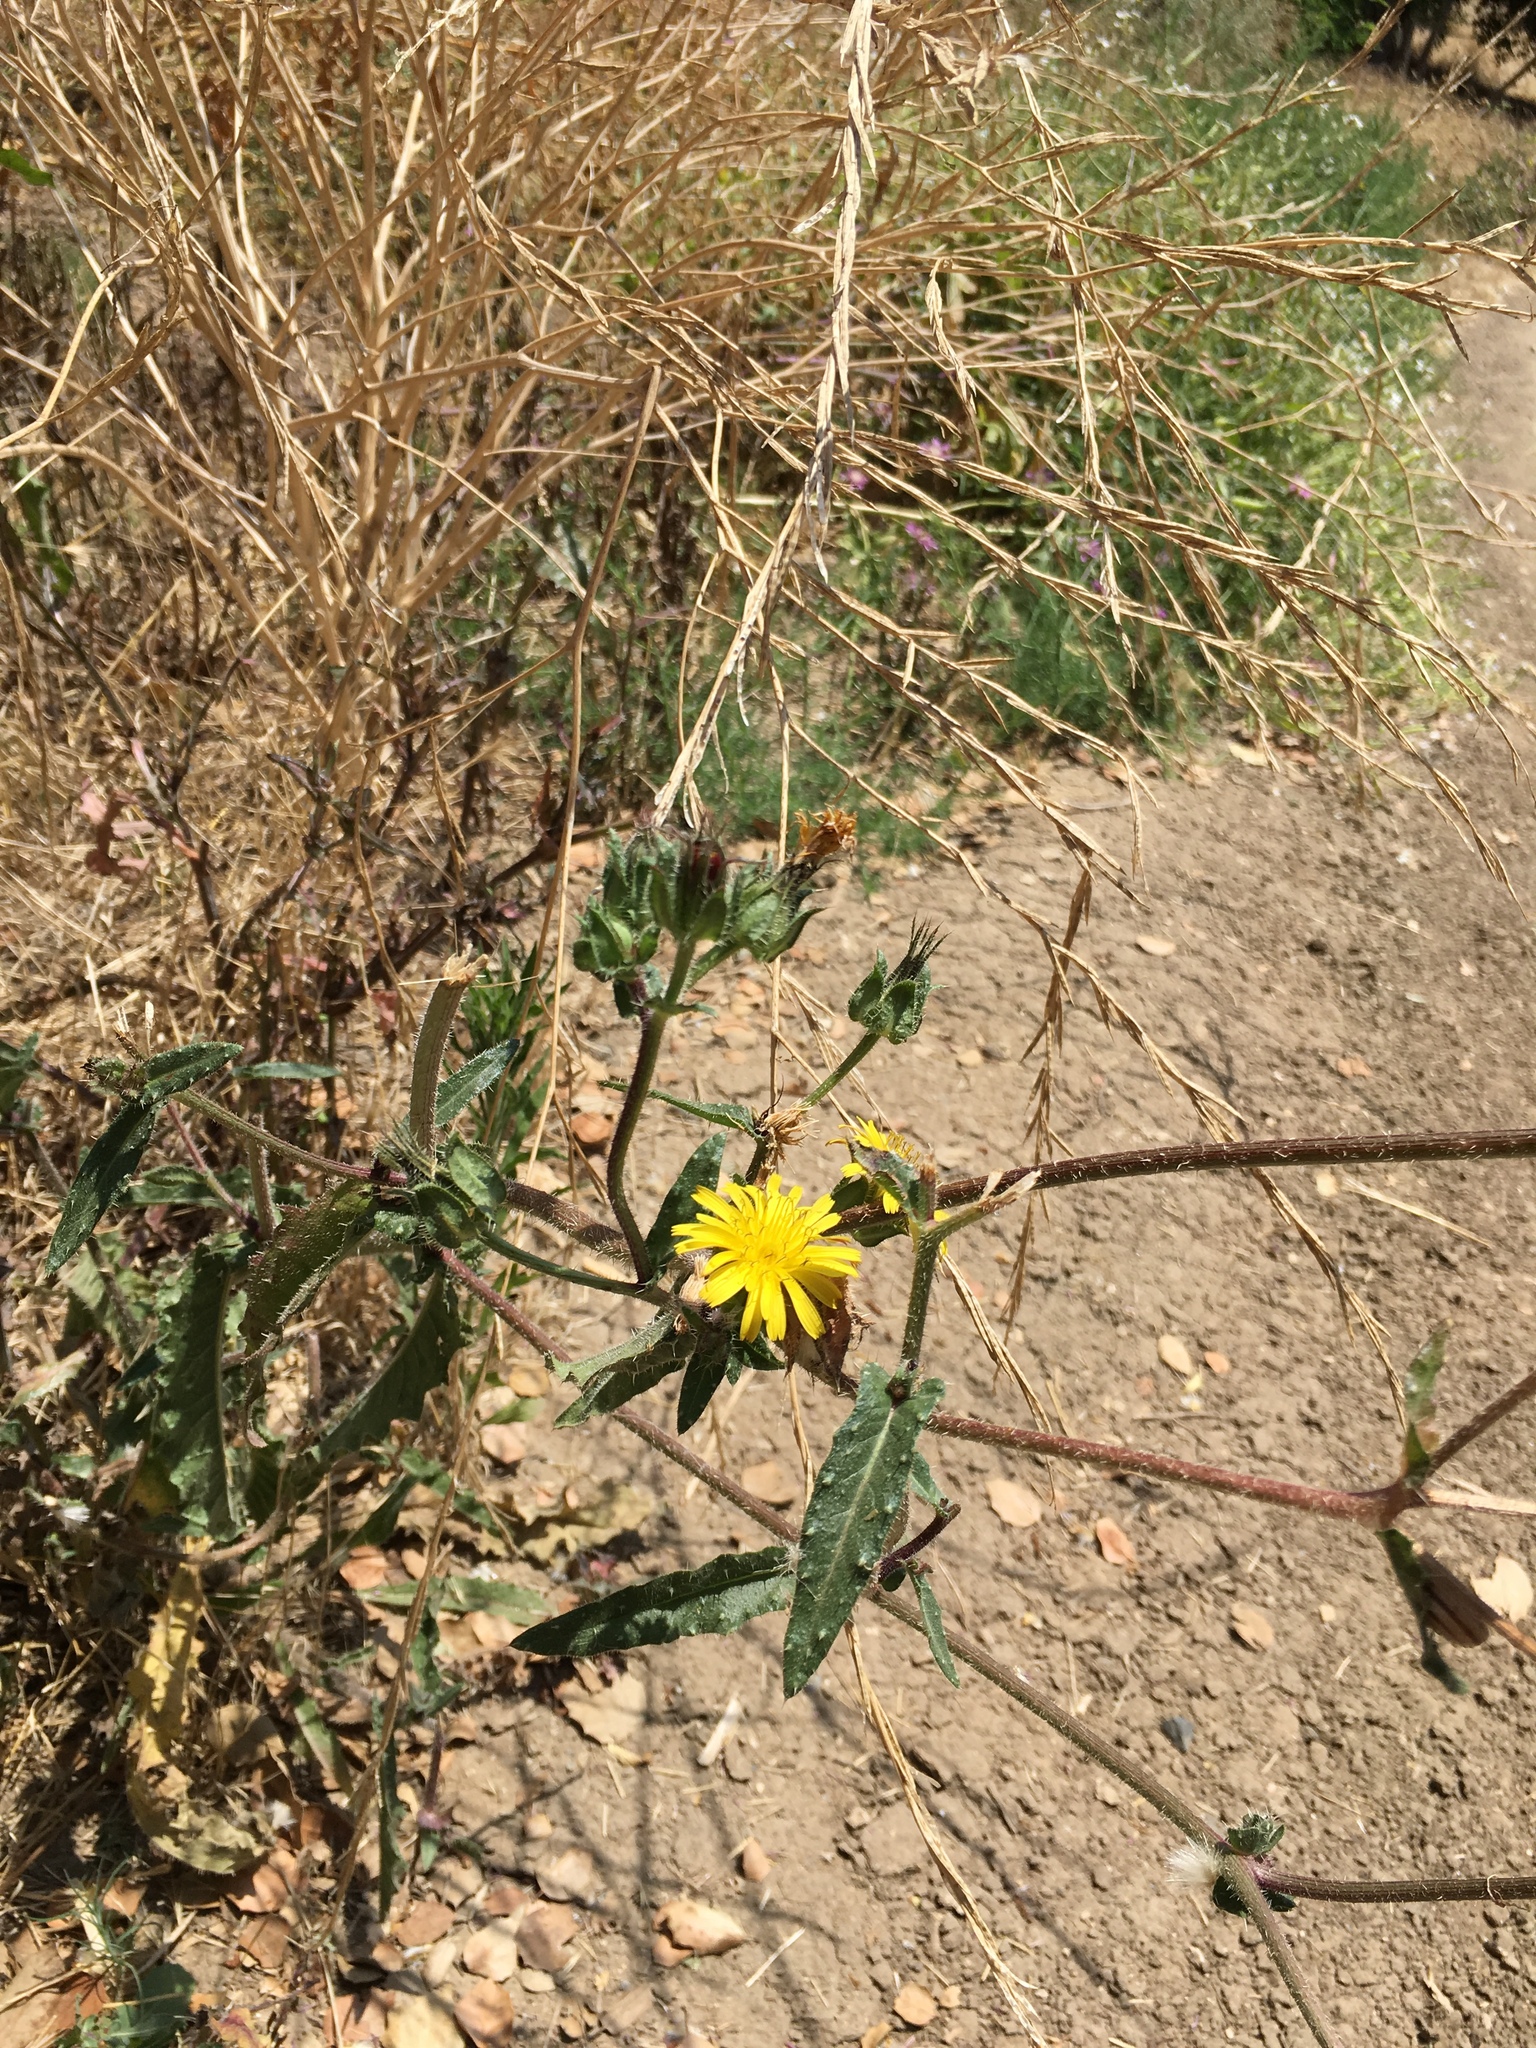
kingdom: Plantae
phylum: Tracheophyta
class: Magnoliopsida
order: Asterales
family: Asteraceae
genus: Helminthotheca
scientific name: Helminthotheca echioides
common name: Ox-tongue
